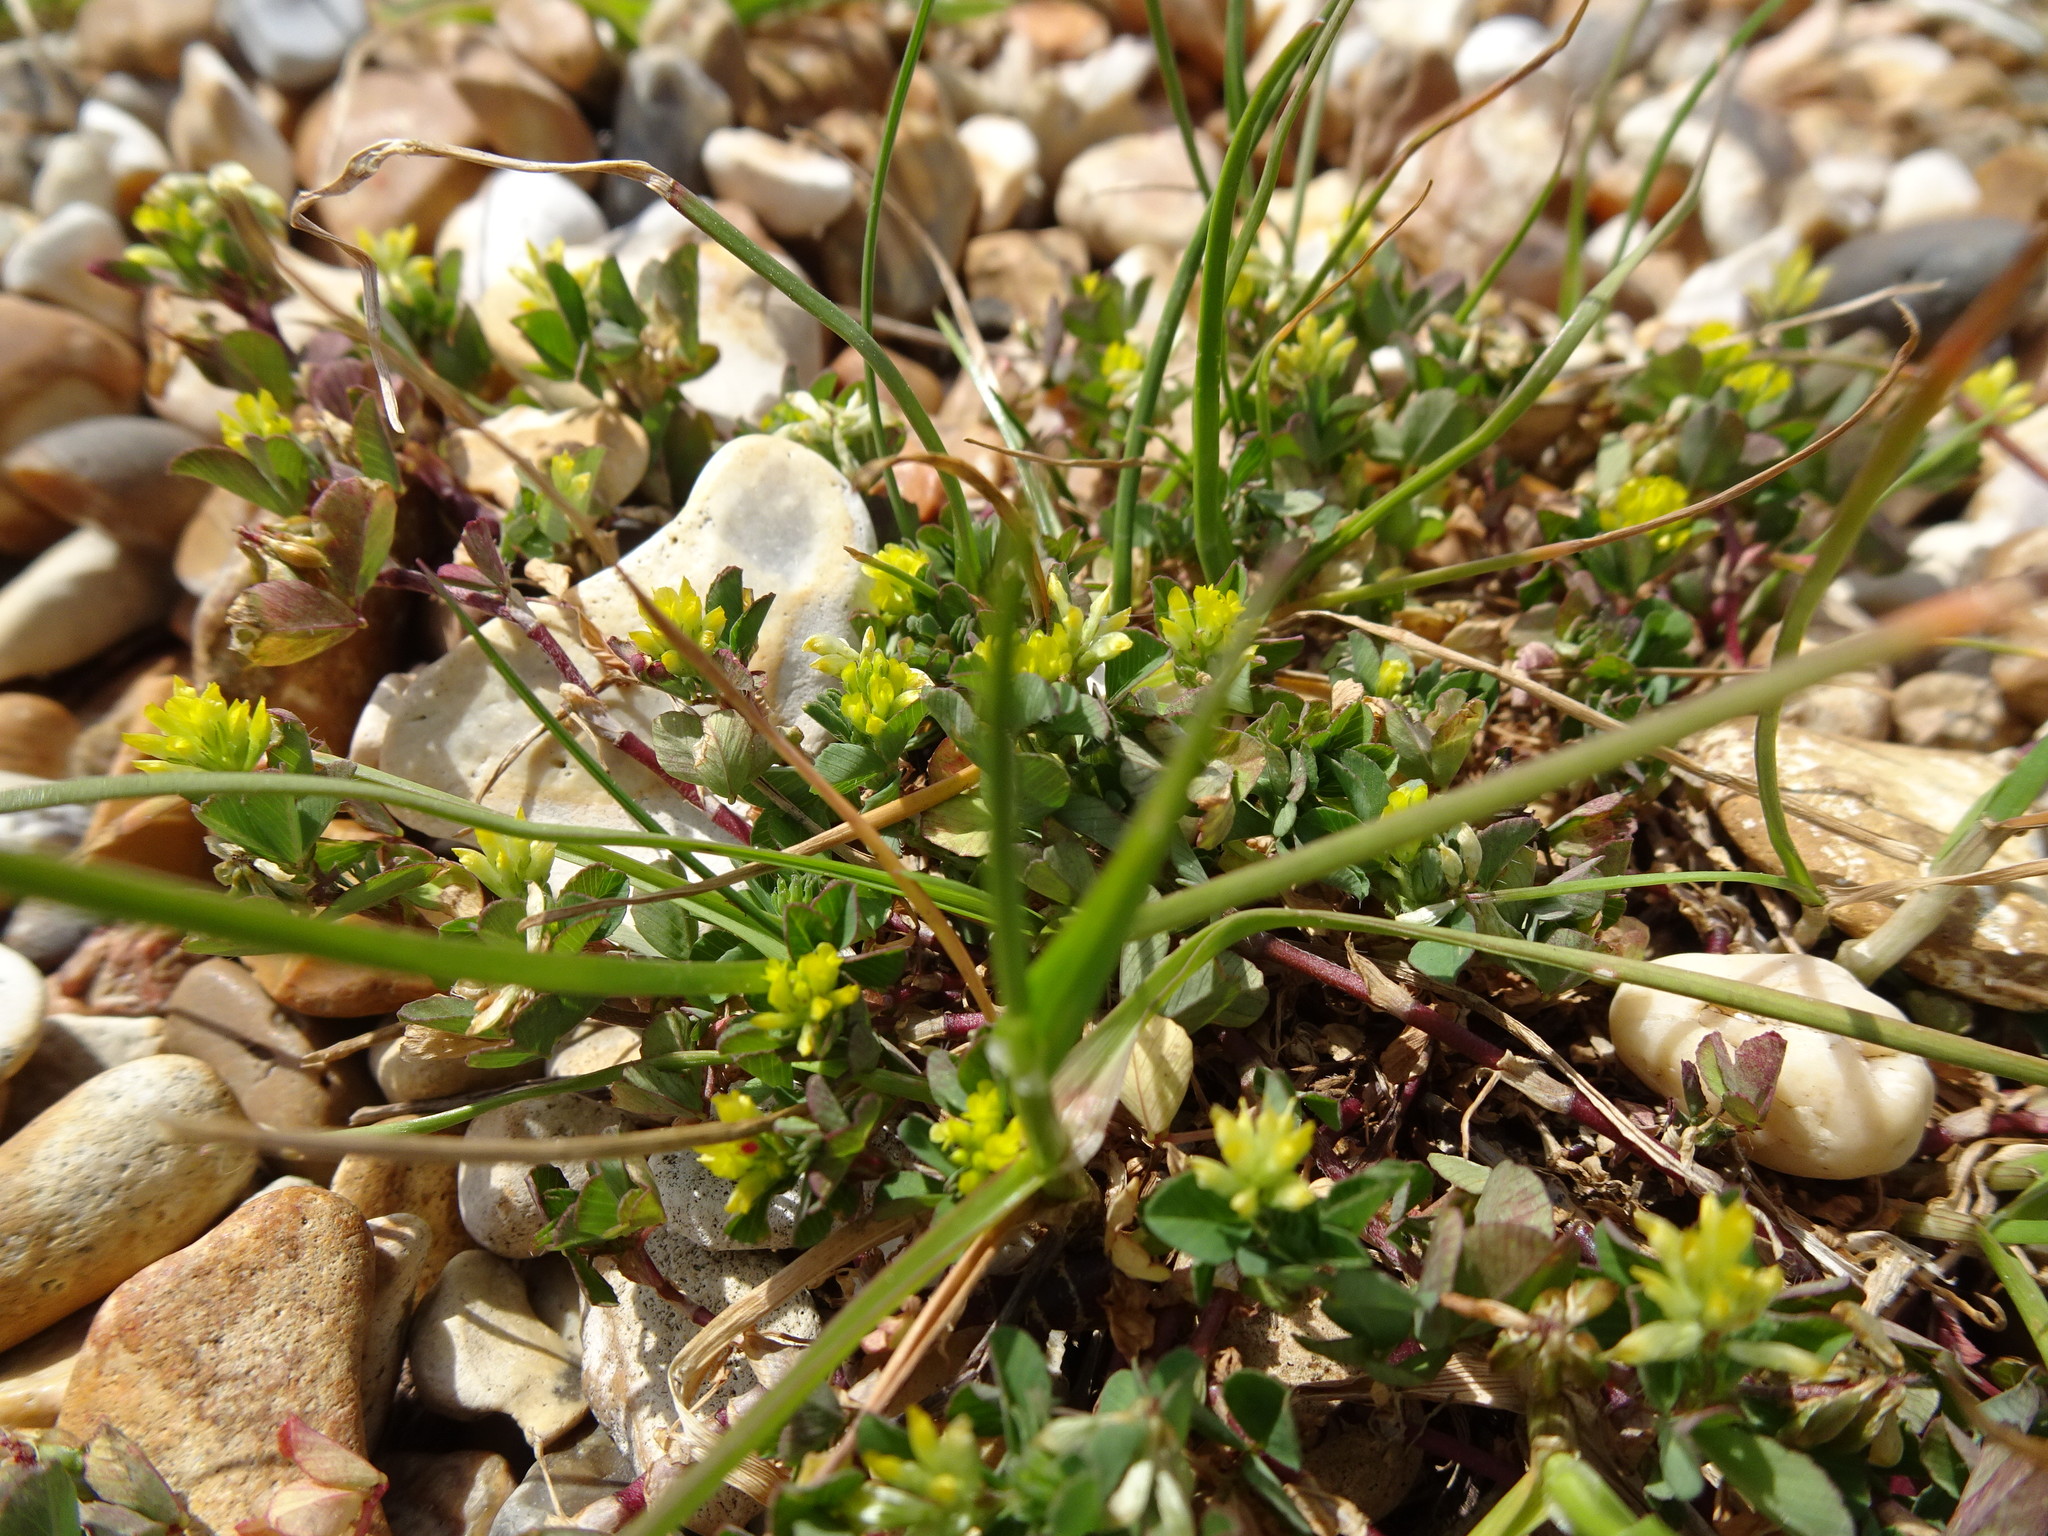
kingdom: Plantae
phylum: Tracheophyta
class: Magnoliopsida
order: Fabales
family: Fabaceae
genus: Trifolium
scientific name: Trifolium dubium
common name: Suckling clover
